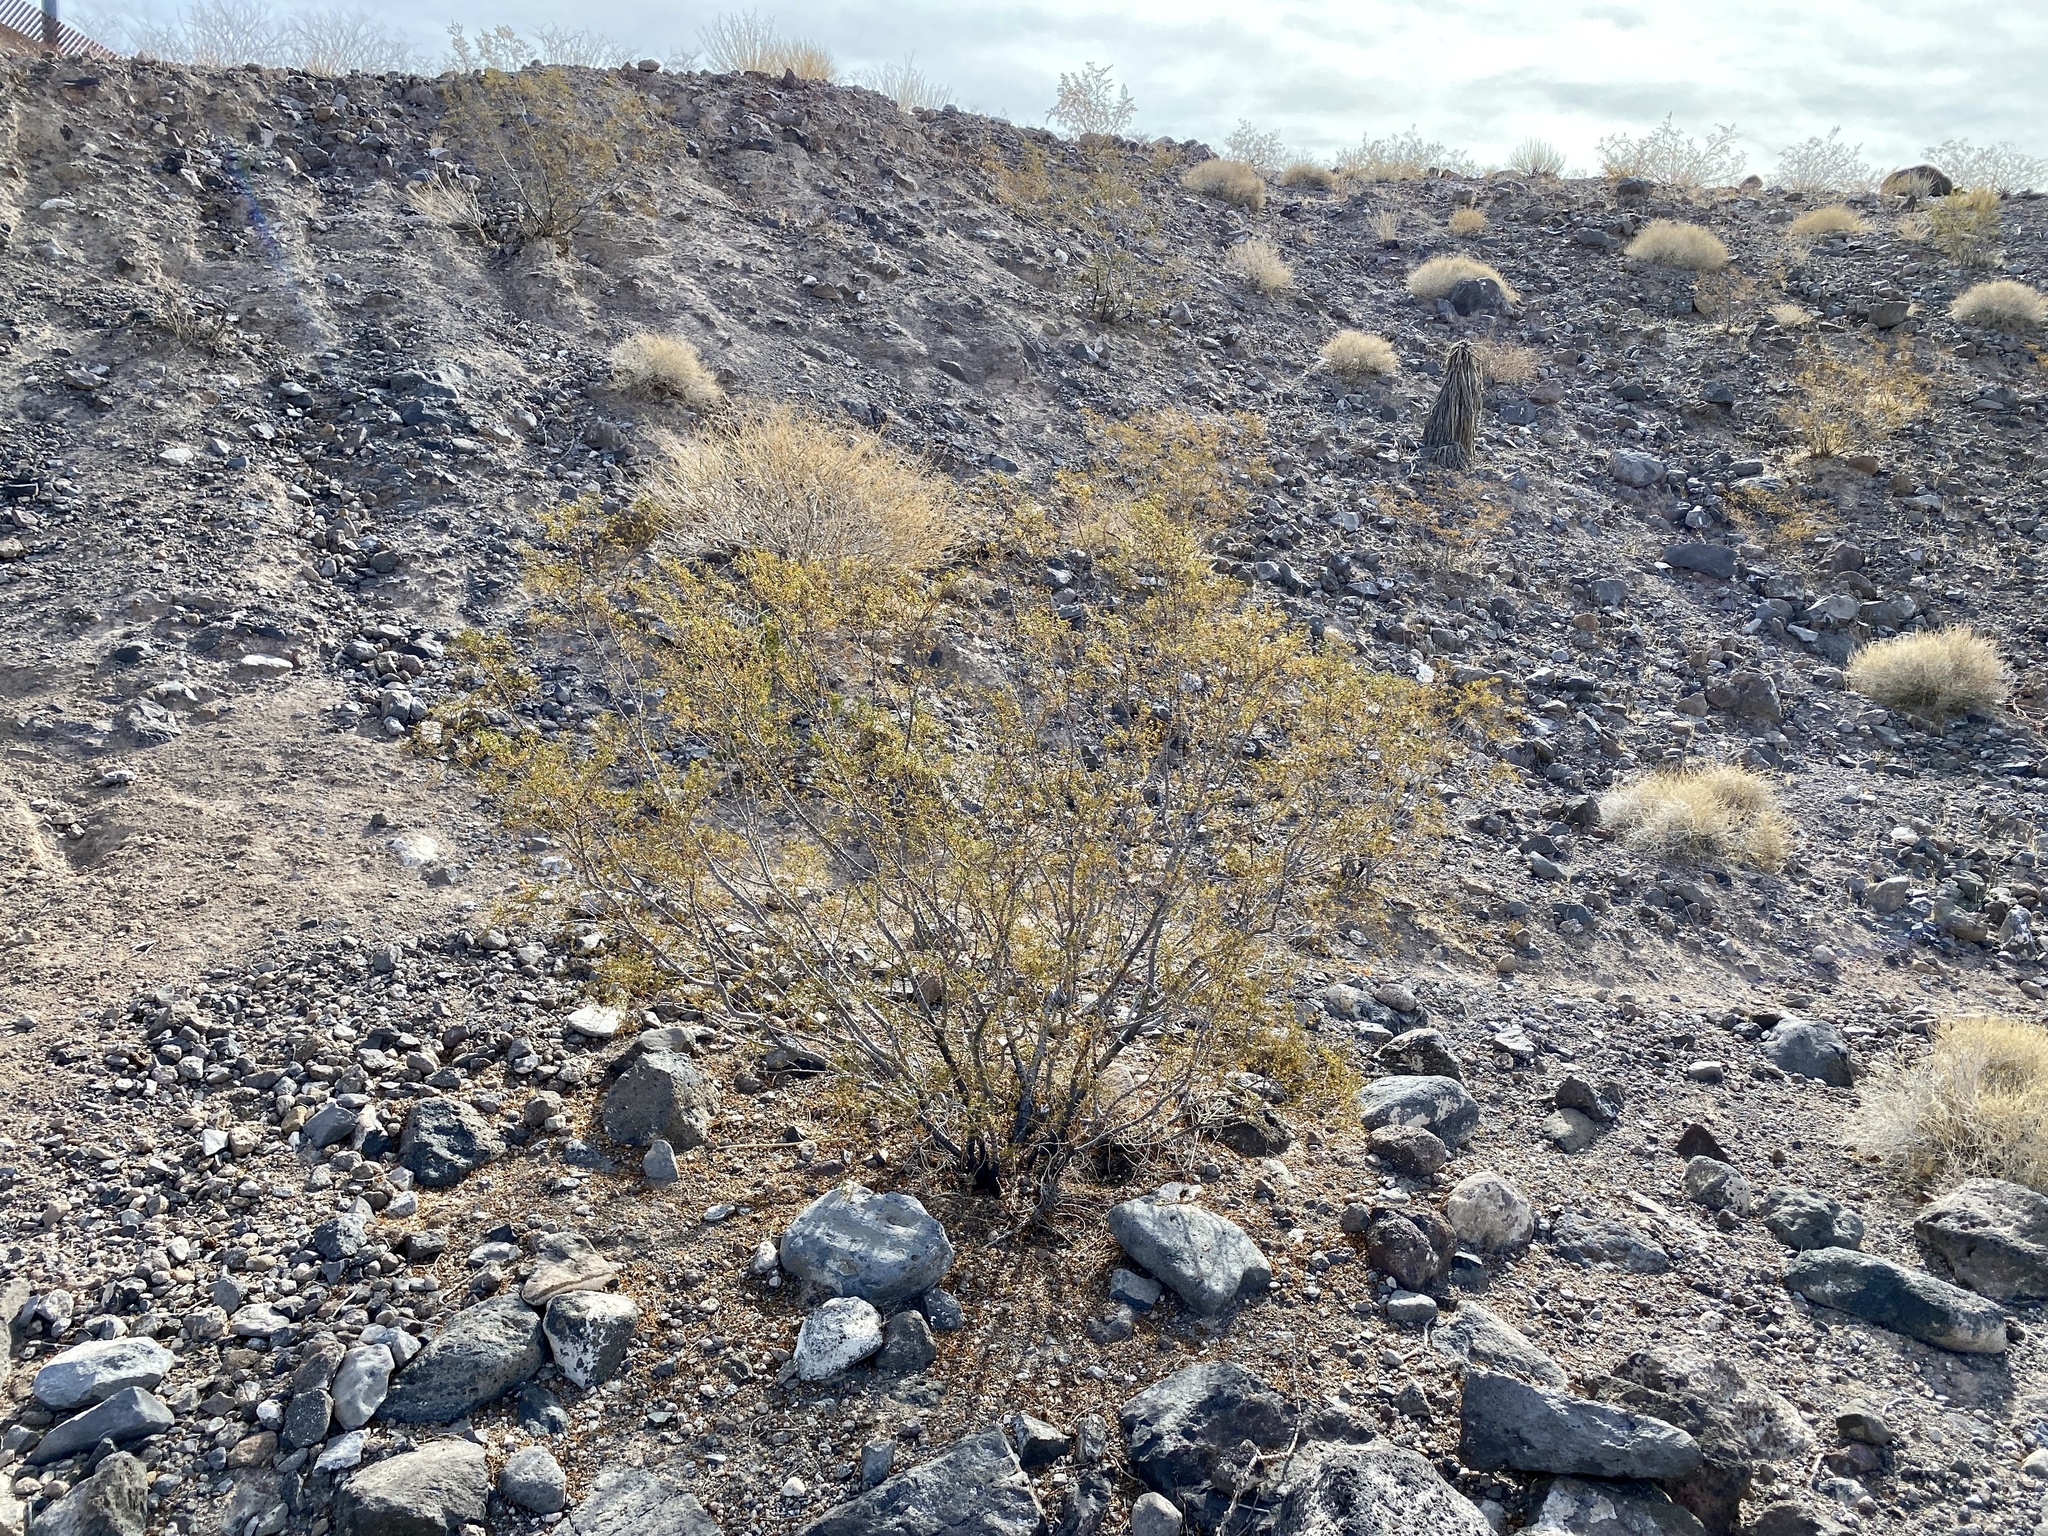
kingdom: Plantae
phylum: Tracheophyta
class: Magnoliopsida
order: Zygophyllales
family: Zygophyllaceae
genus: Larrea
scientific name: Larrea tridentata
